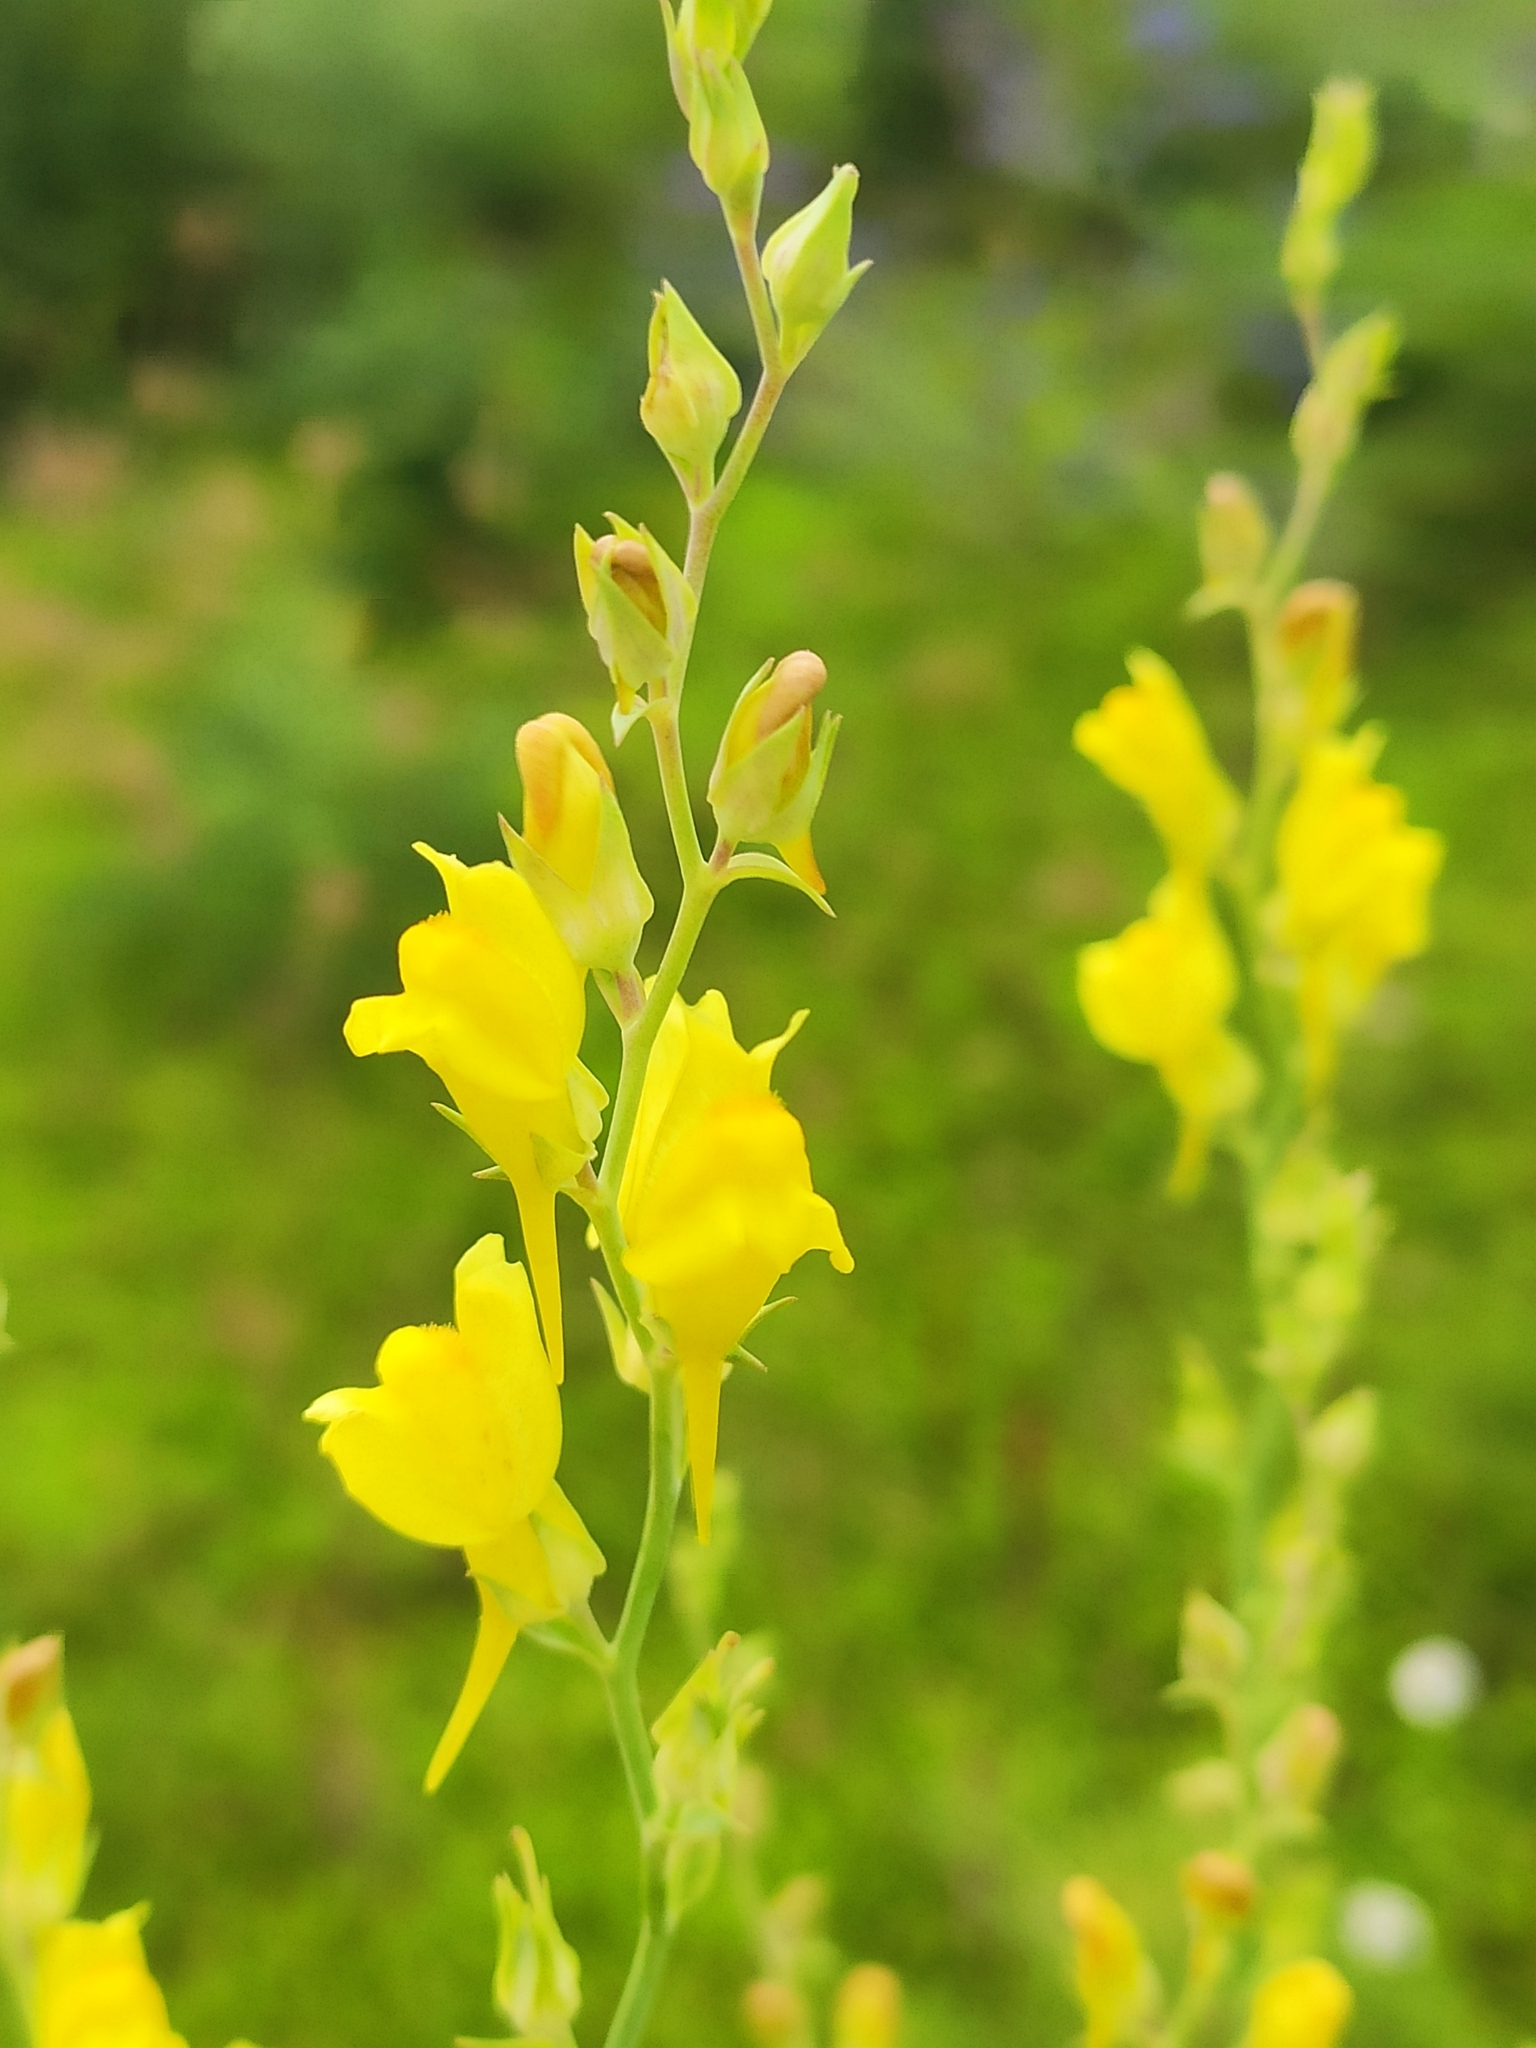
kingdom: Plantae
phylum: Tracheophyta
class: Magnoliopsida
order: Lamiales
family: Plantaginaceae
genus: Linaria
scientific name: Linaria genistifolia
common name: Broomleaf toadflax
